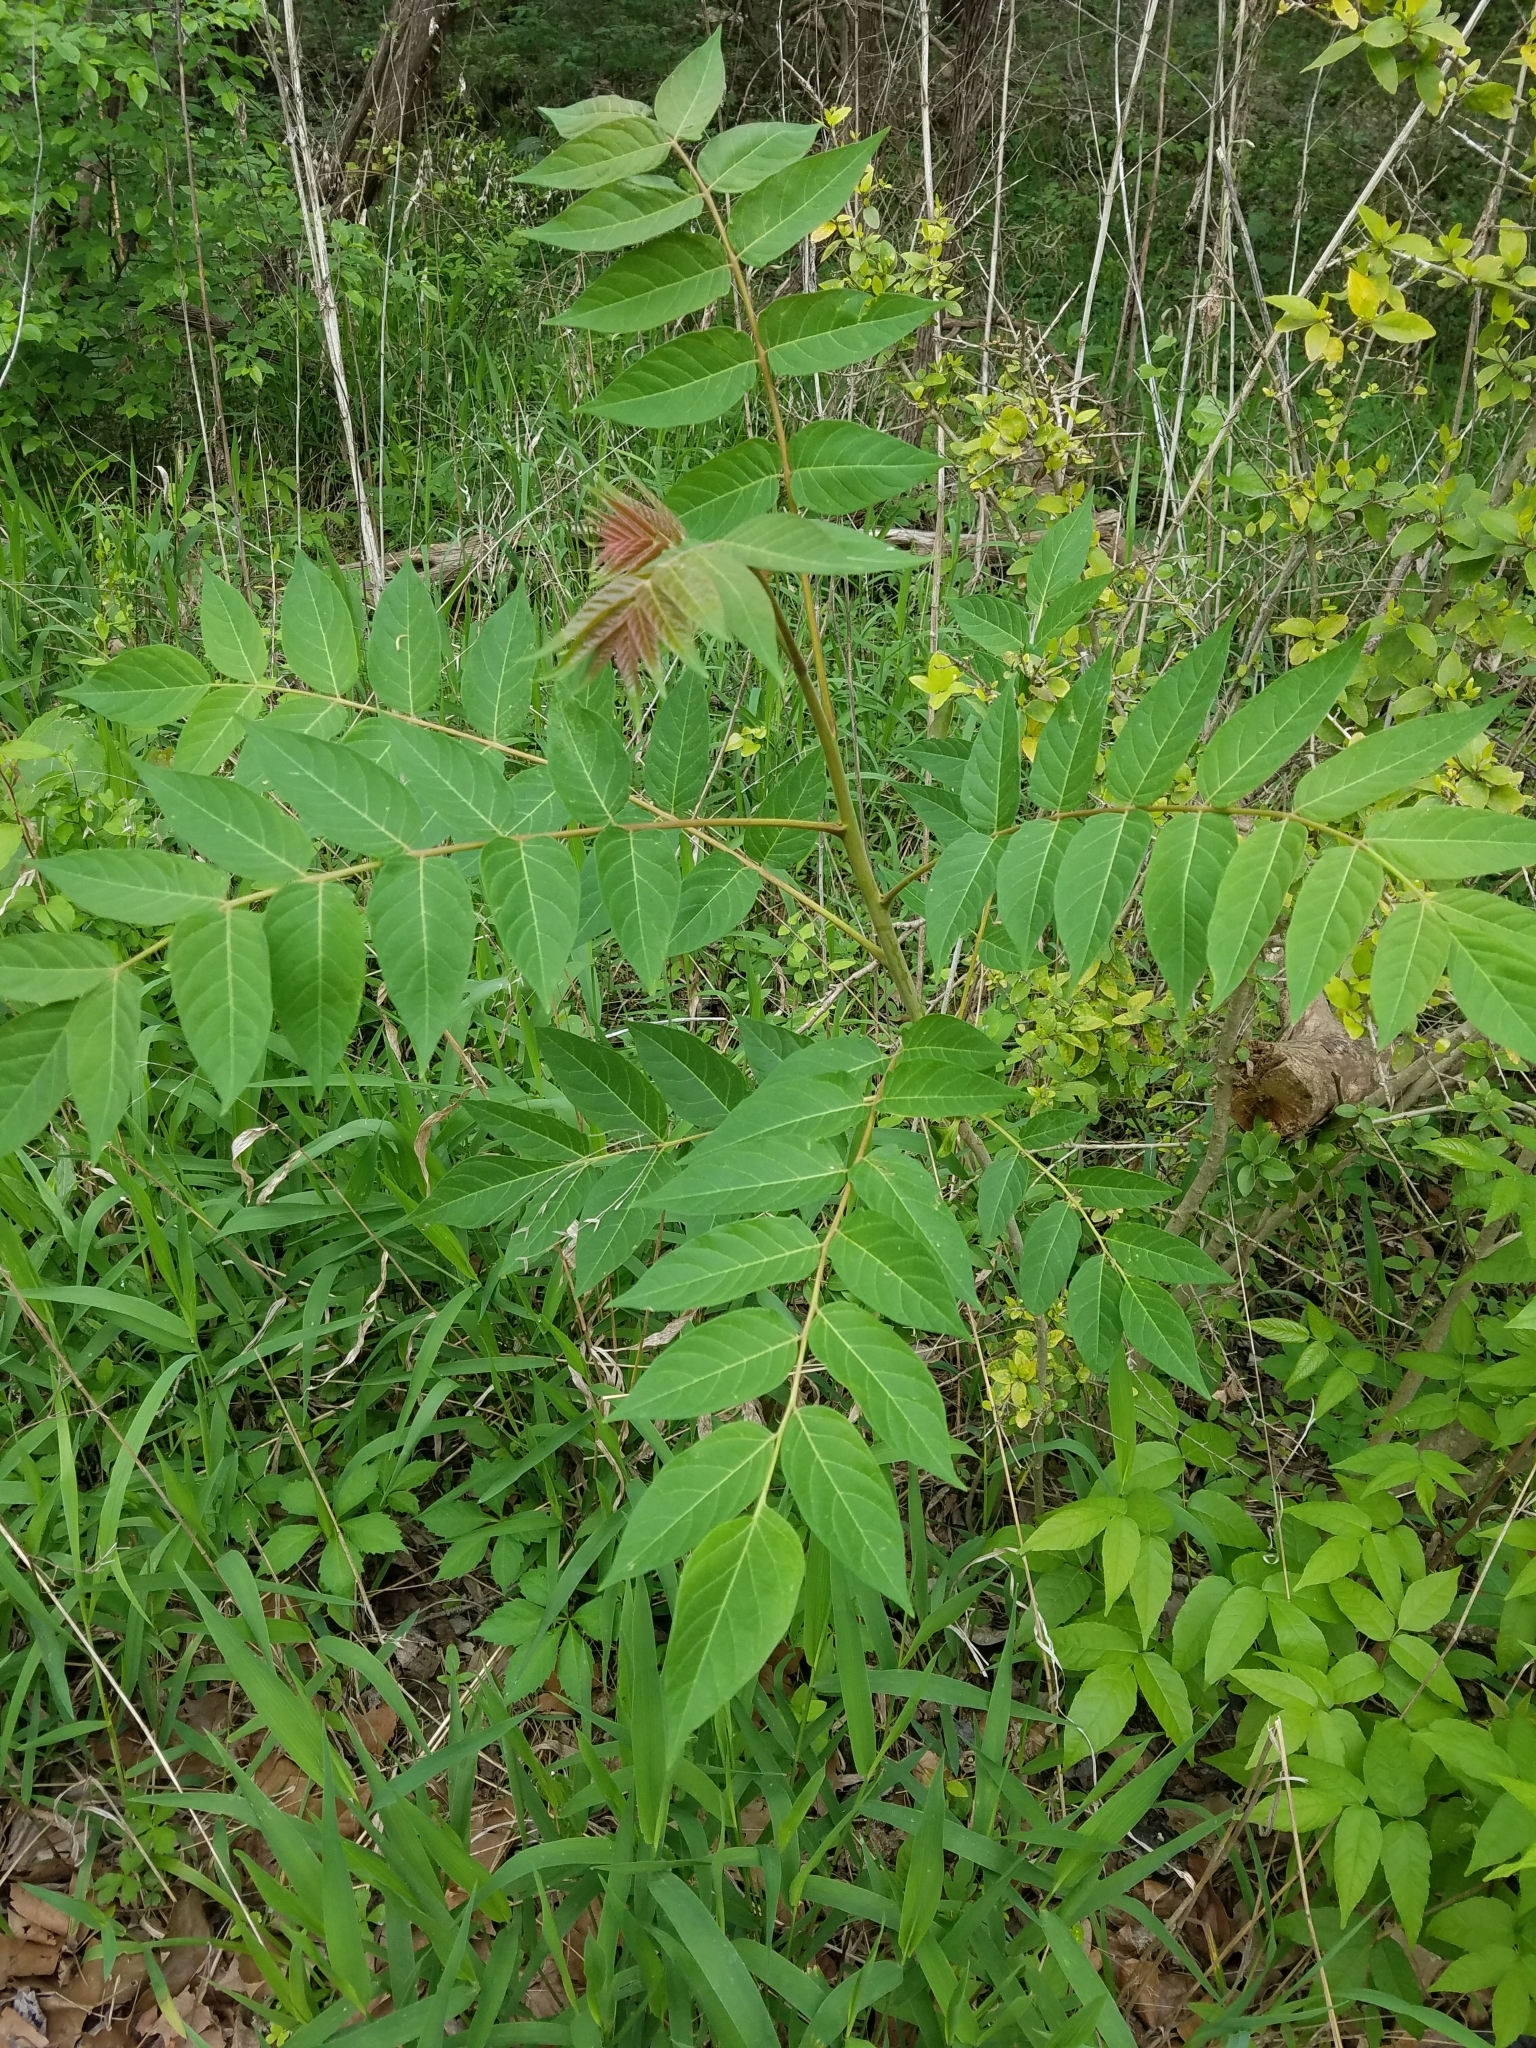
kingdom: Plantae
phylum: Tracheophyta
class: Magnoliopsida
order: Sapindales
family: Simaroubaceae
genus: Ailanthus
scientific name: Ailanthus altissima
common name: Tree-of-heaven
